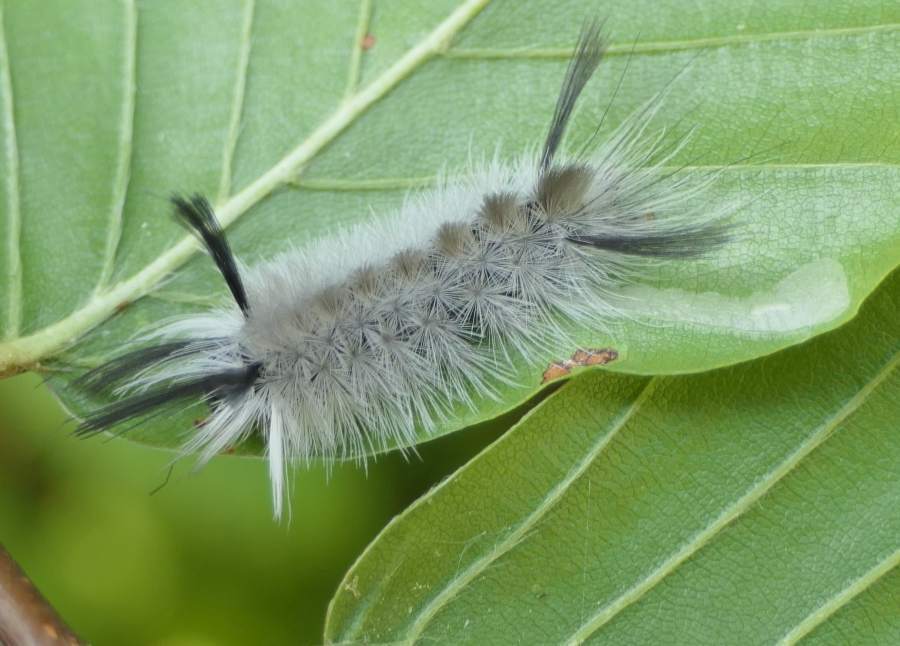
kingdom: Animalia
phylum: Arthropoda
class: Insecta
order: Lepidoptera
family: Erebidae
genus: Halysidota
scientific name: Halysidota tessellaris
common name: Banded tussock moth
